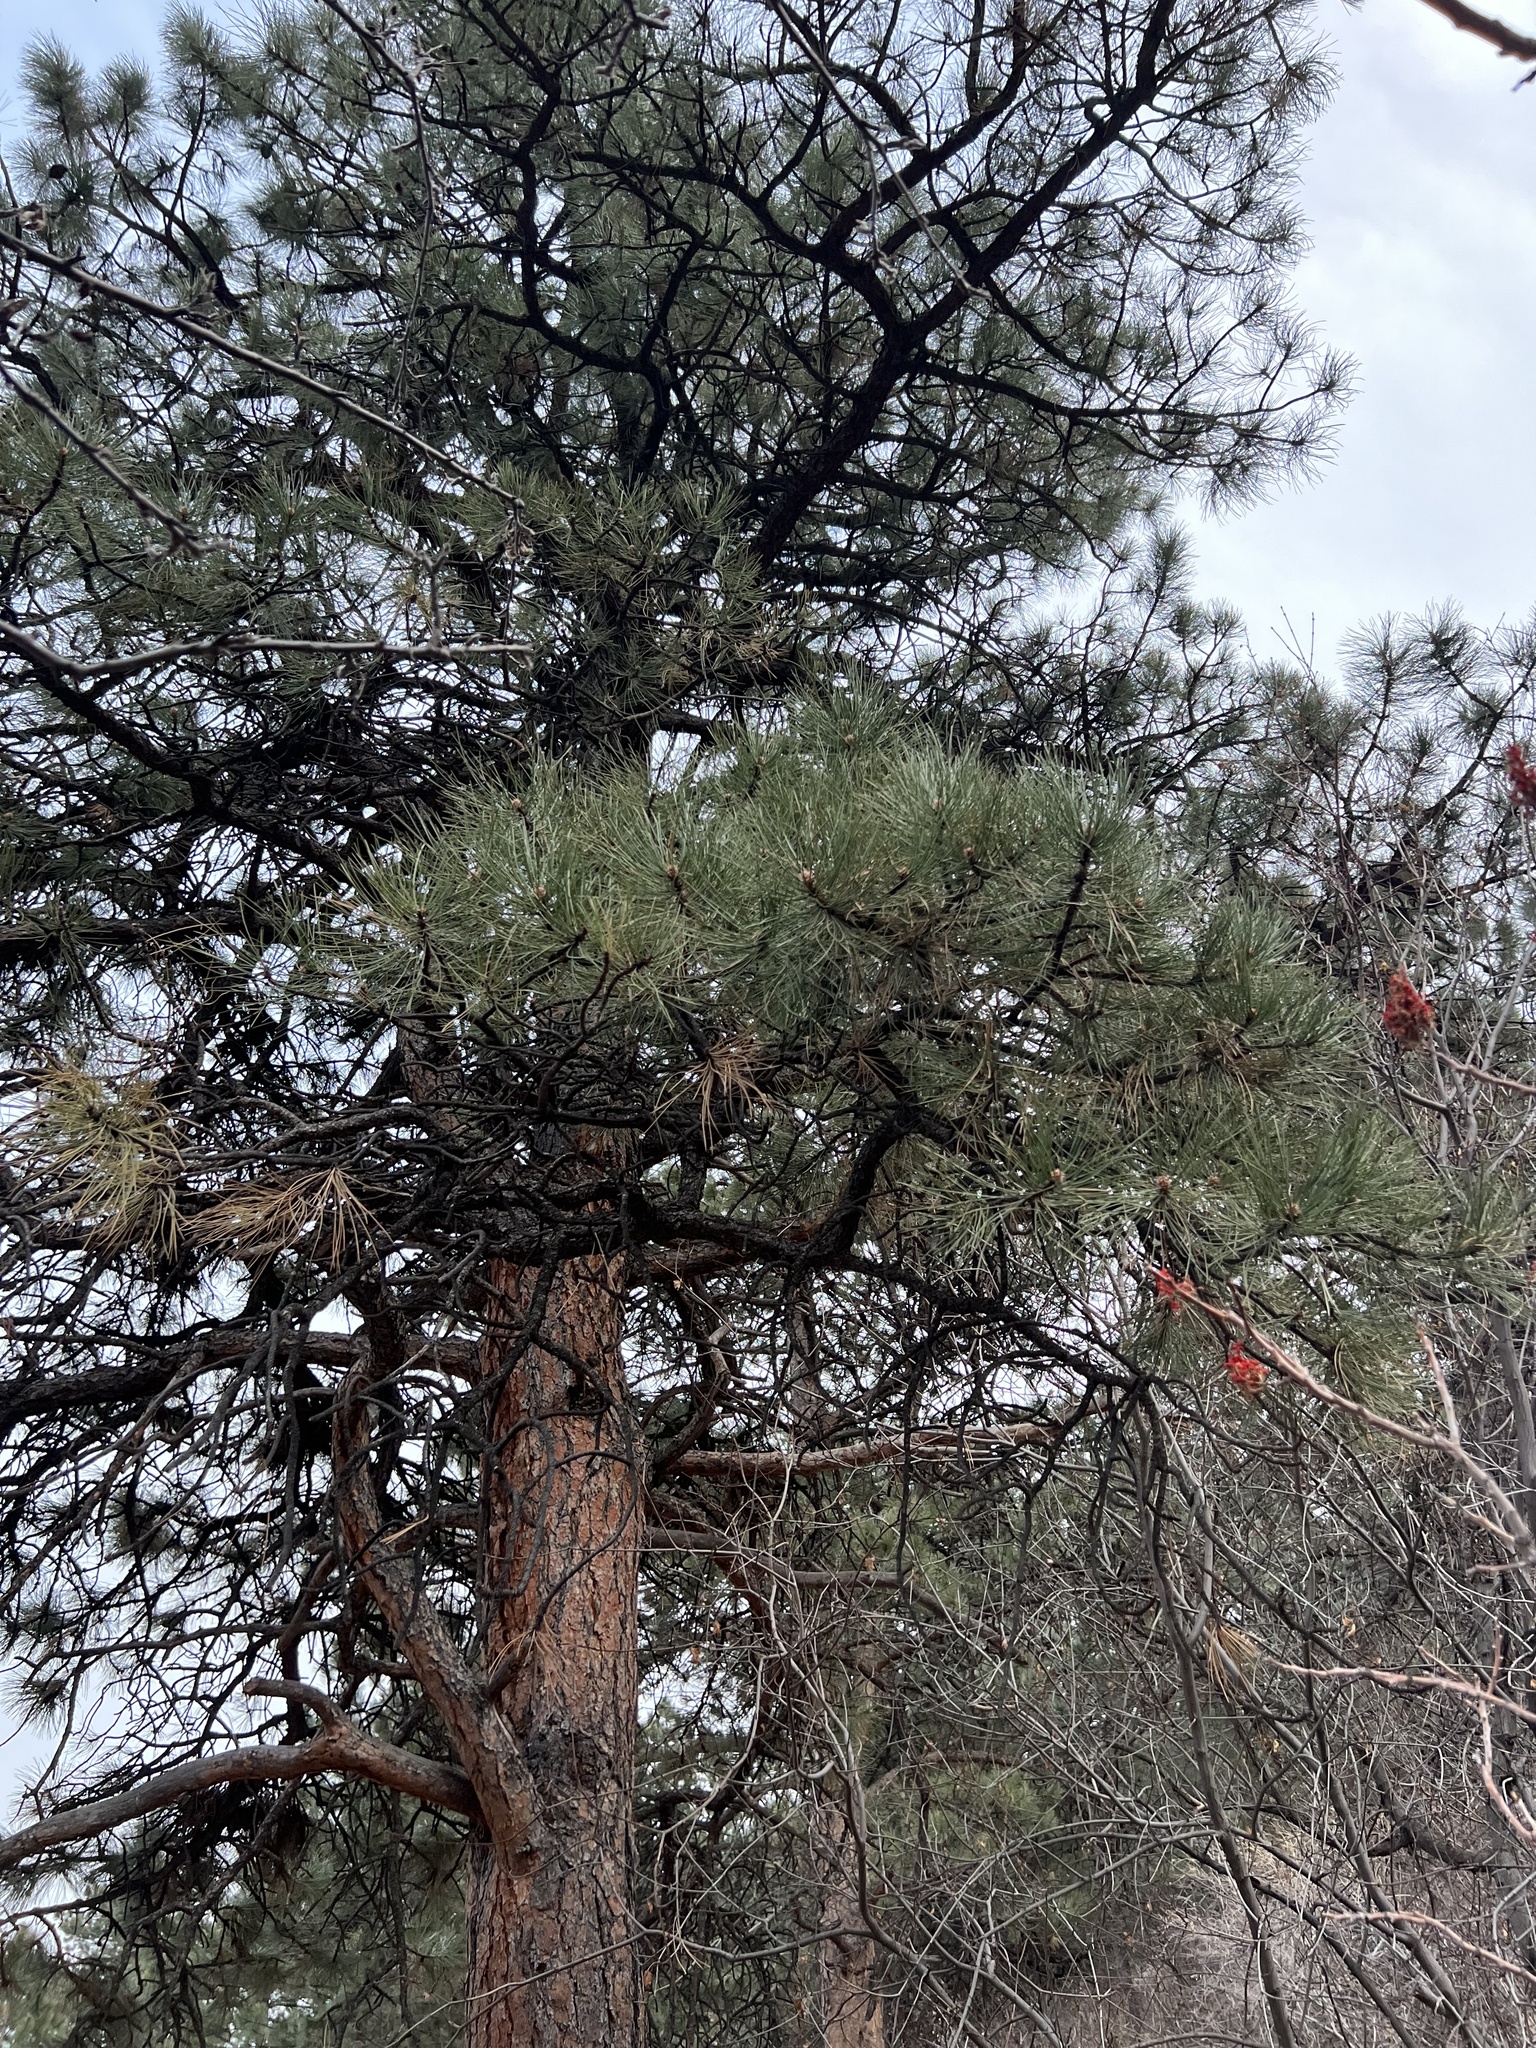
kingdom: Plantae
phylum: Tracheophyta
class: Pinopsida
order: Pinales
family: Pinaceae
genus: Pinus
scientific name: Pinus ponderosa
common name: Western yellow-pine
